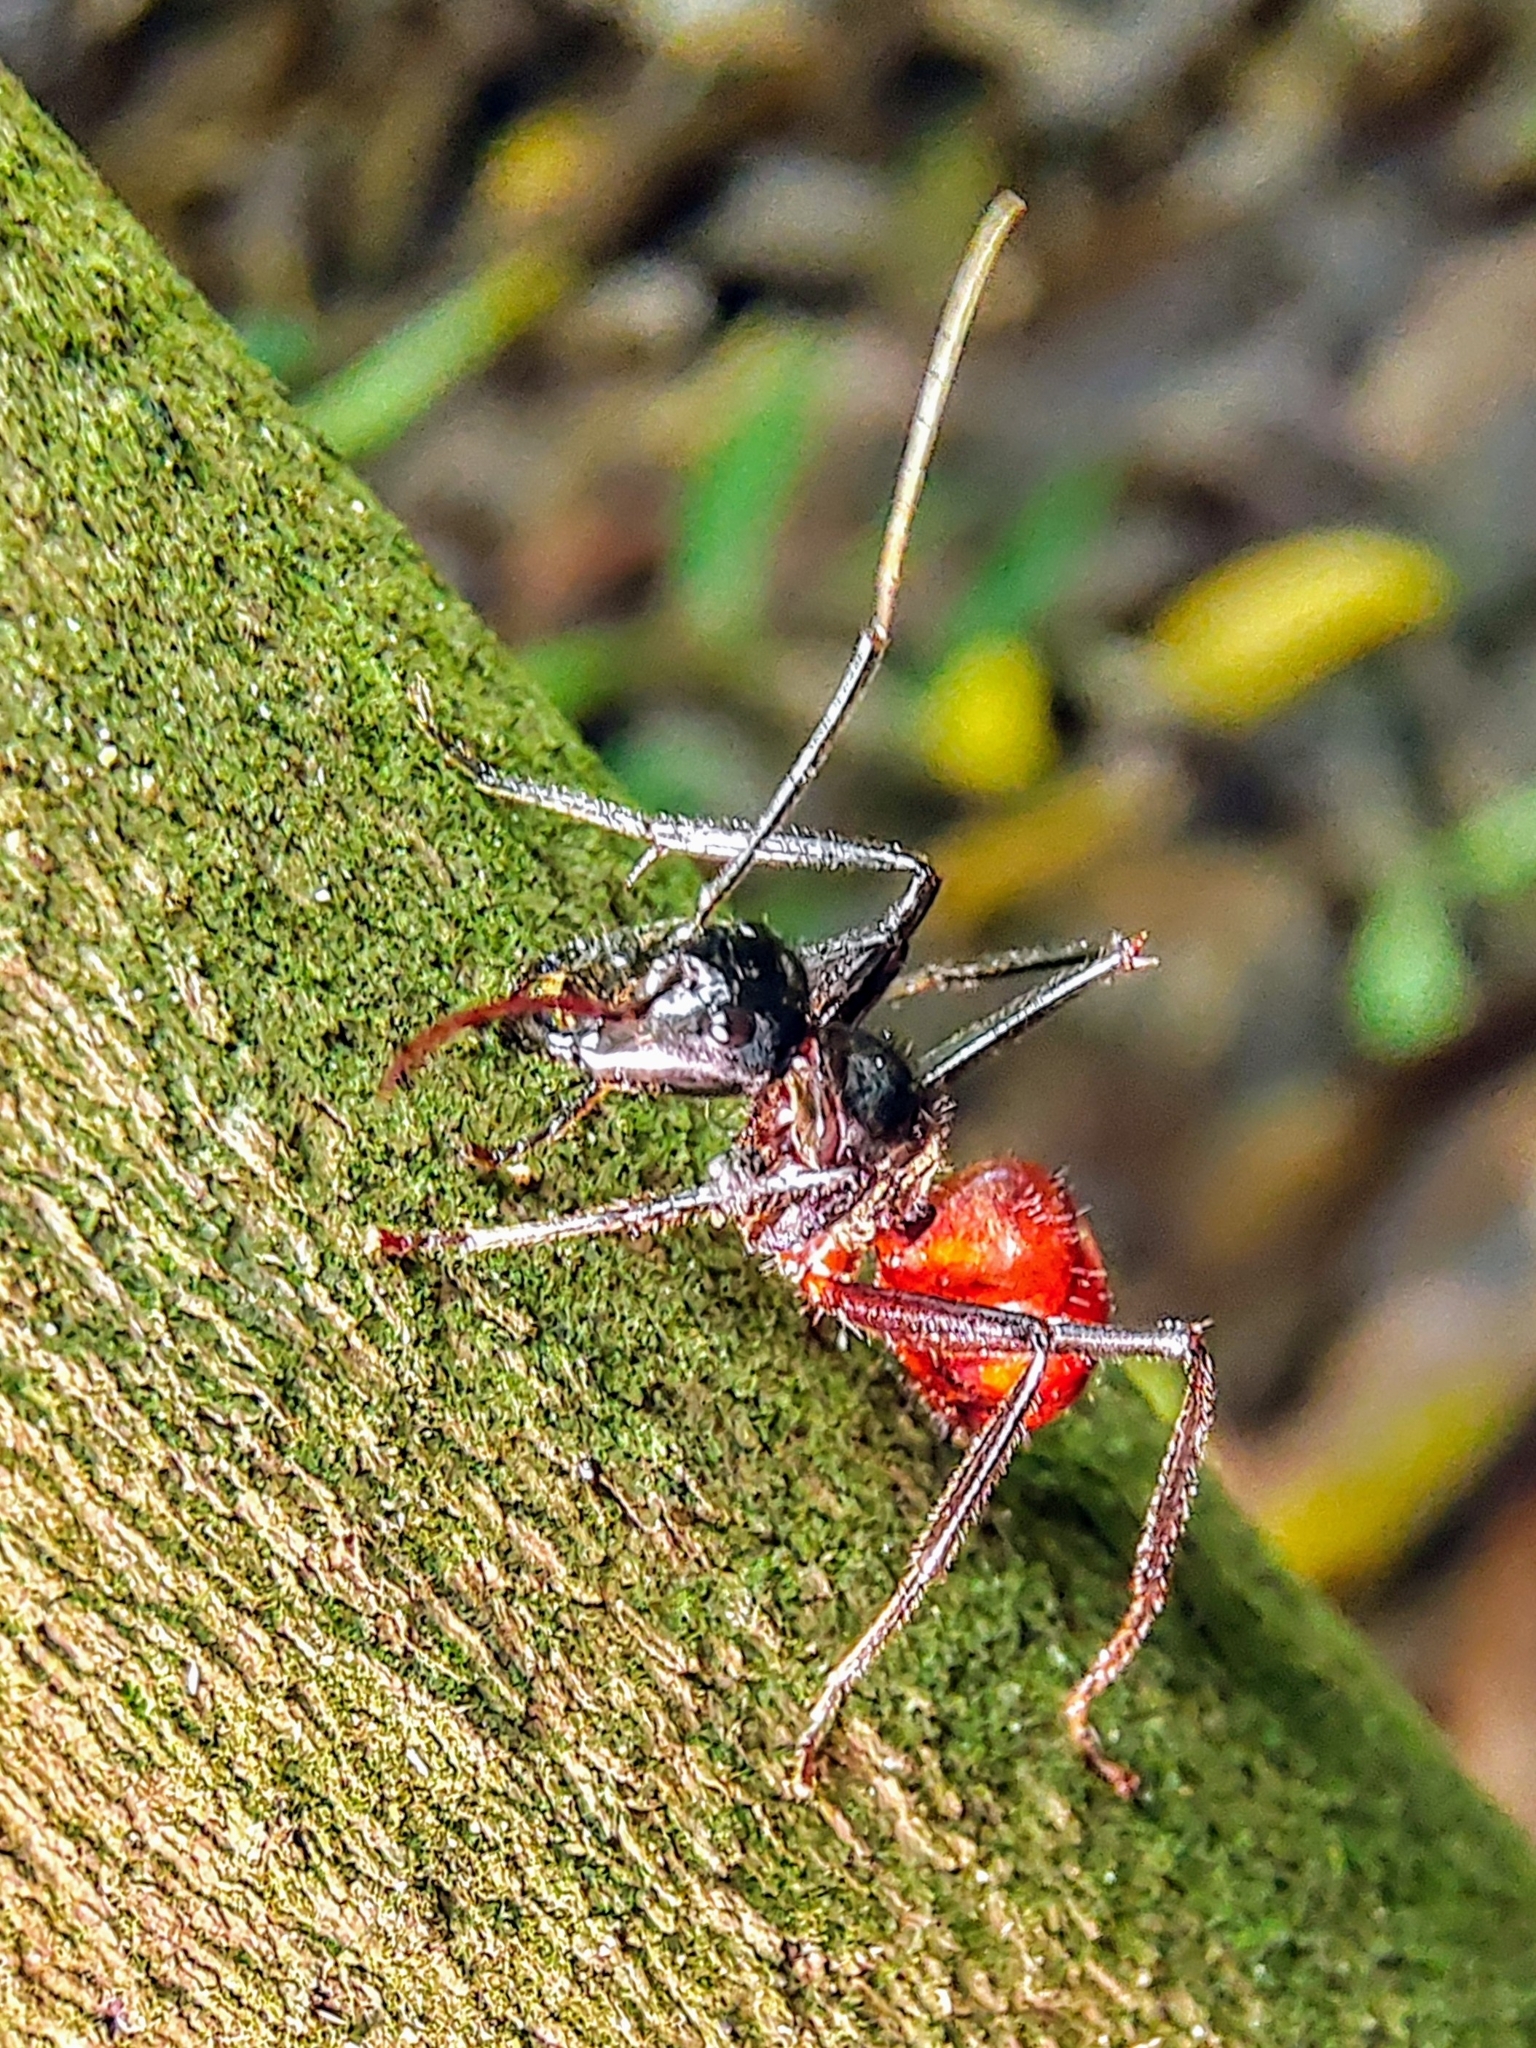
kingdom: Animalia
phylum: Arthropoda
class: Insecta
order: Hymenoptera
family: Formicidae
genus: Dinomyrmex
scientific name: Dinomyrmex
